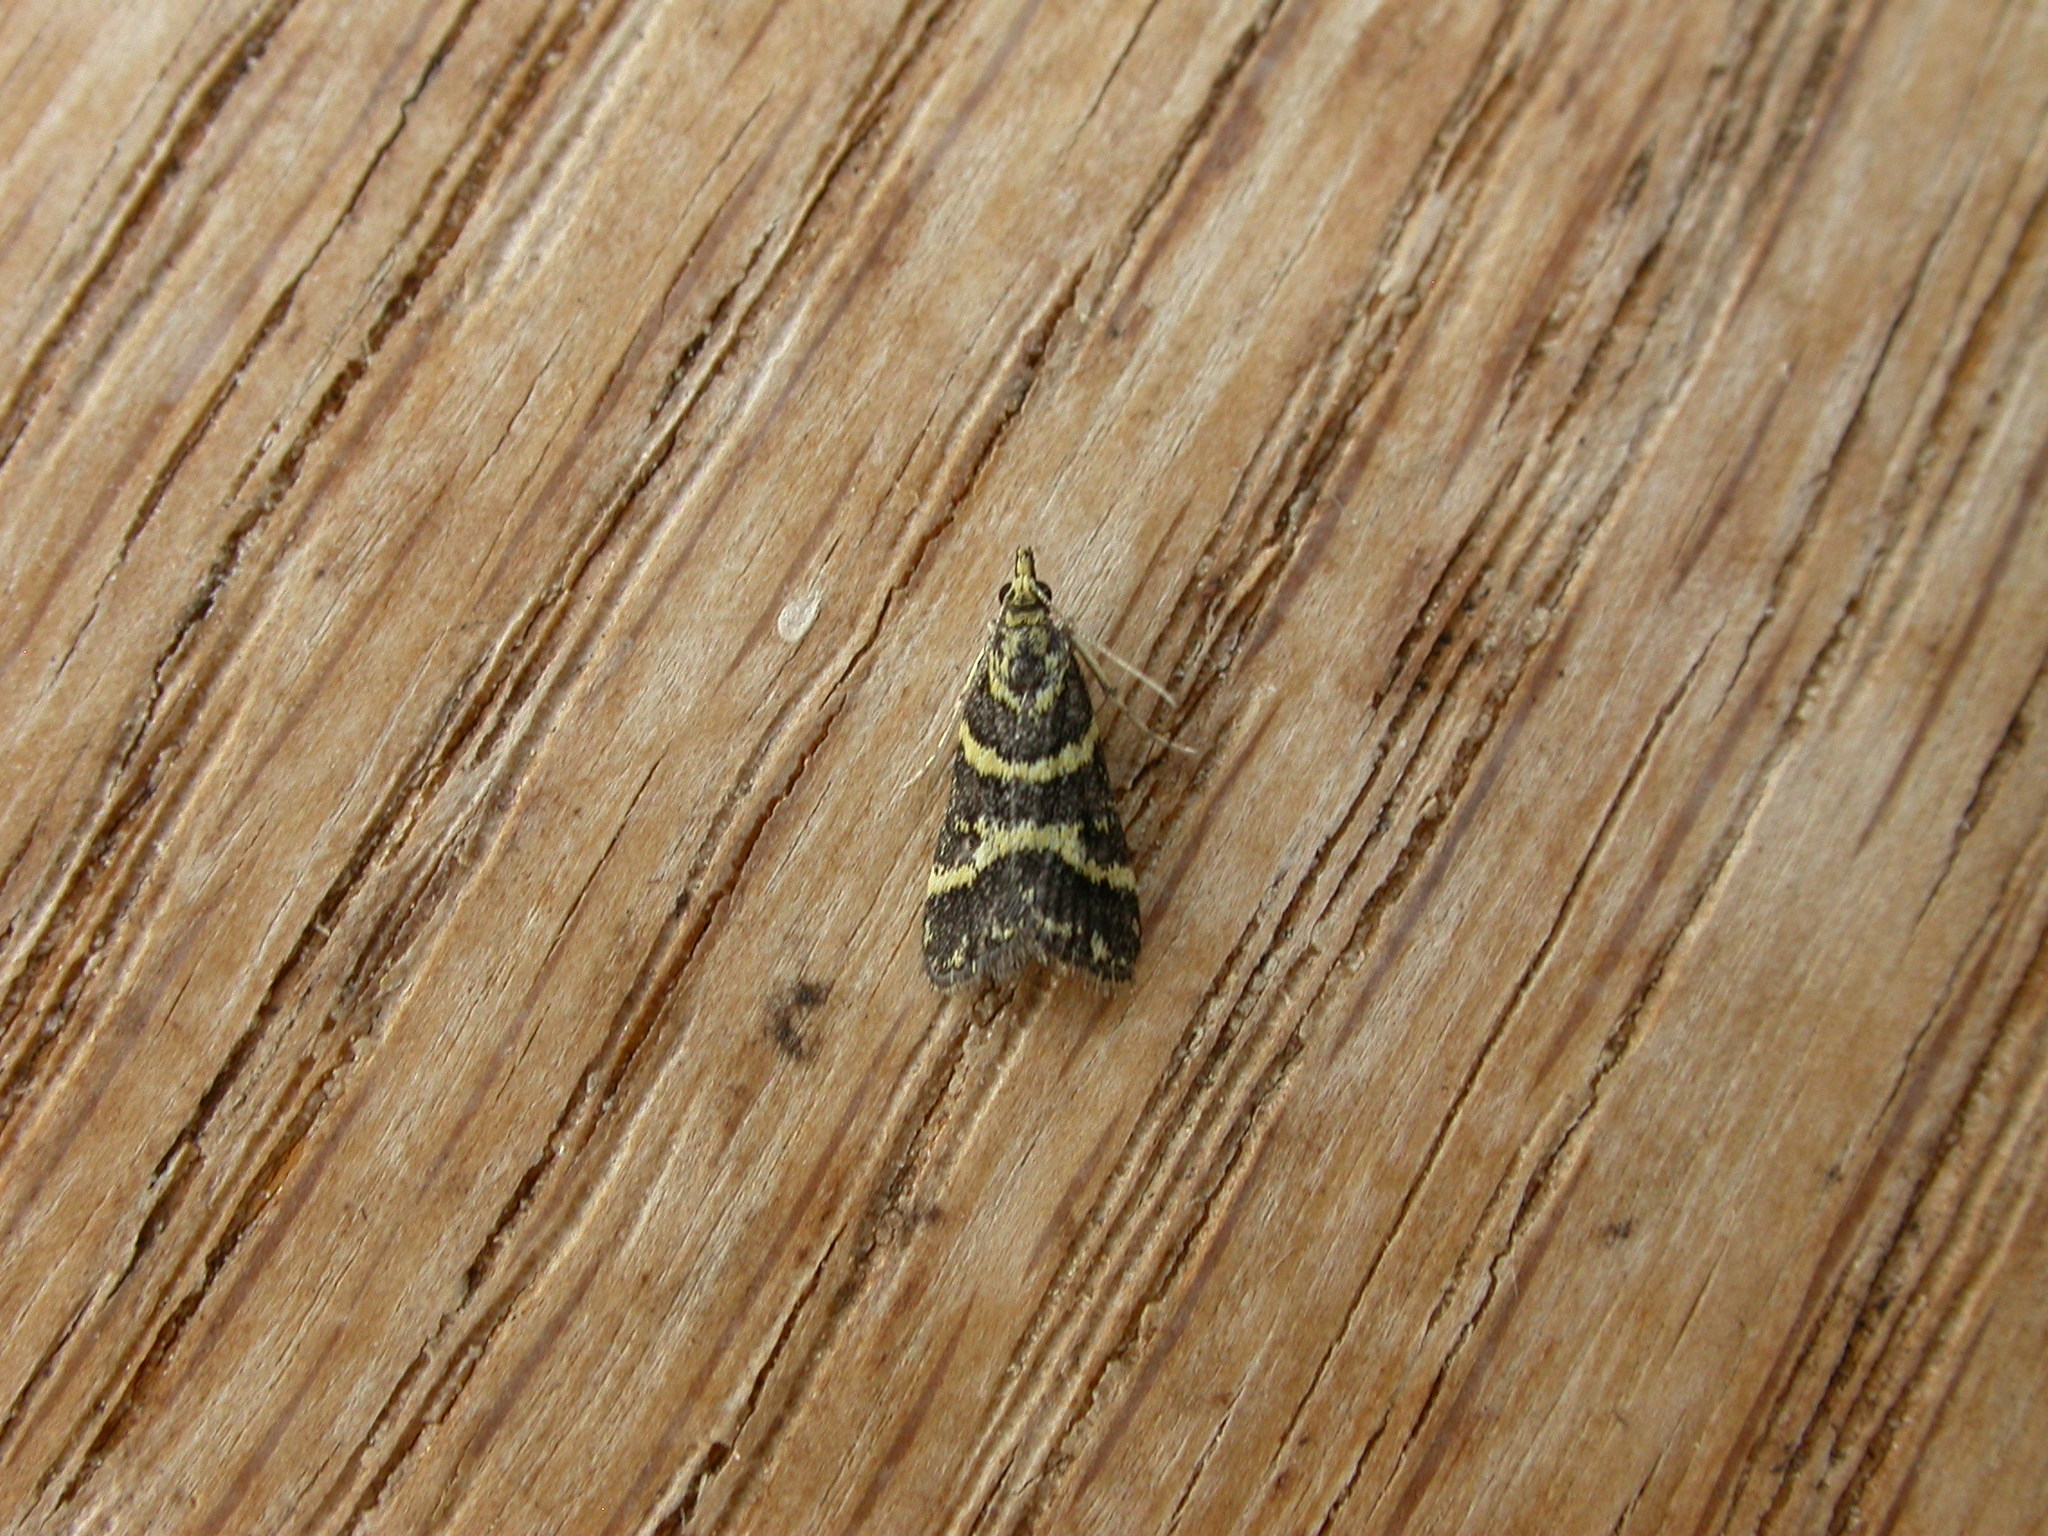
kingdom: Animalia
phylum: Arthropoda
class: Insecta
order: Lepidoptera
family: Crambidae
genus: Scoparia
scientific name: Scoparia spelaea
